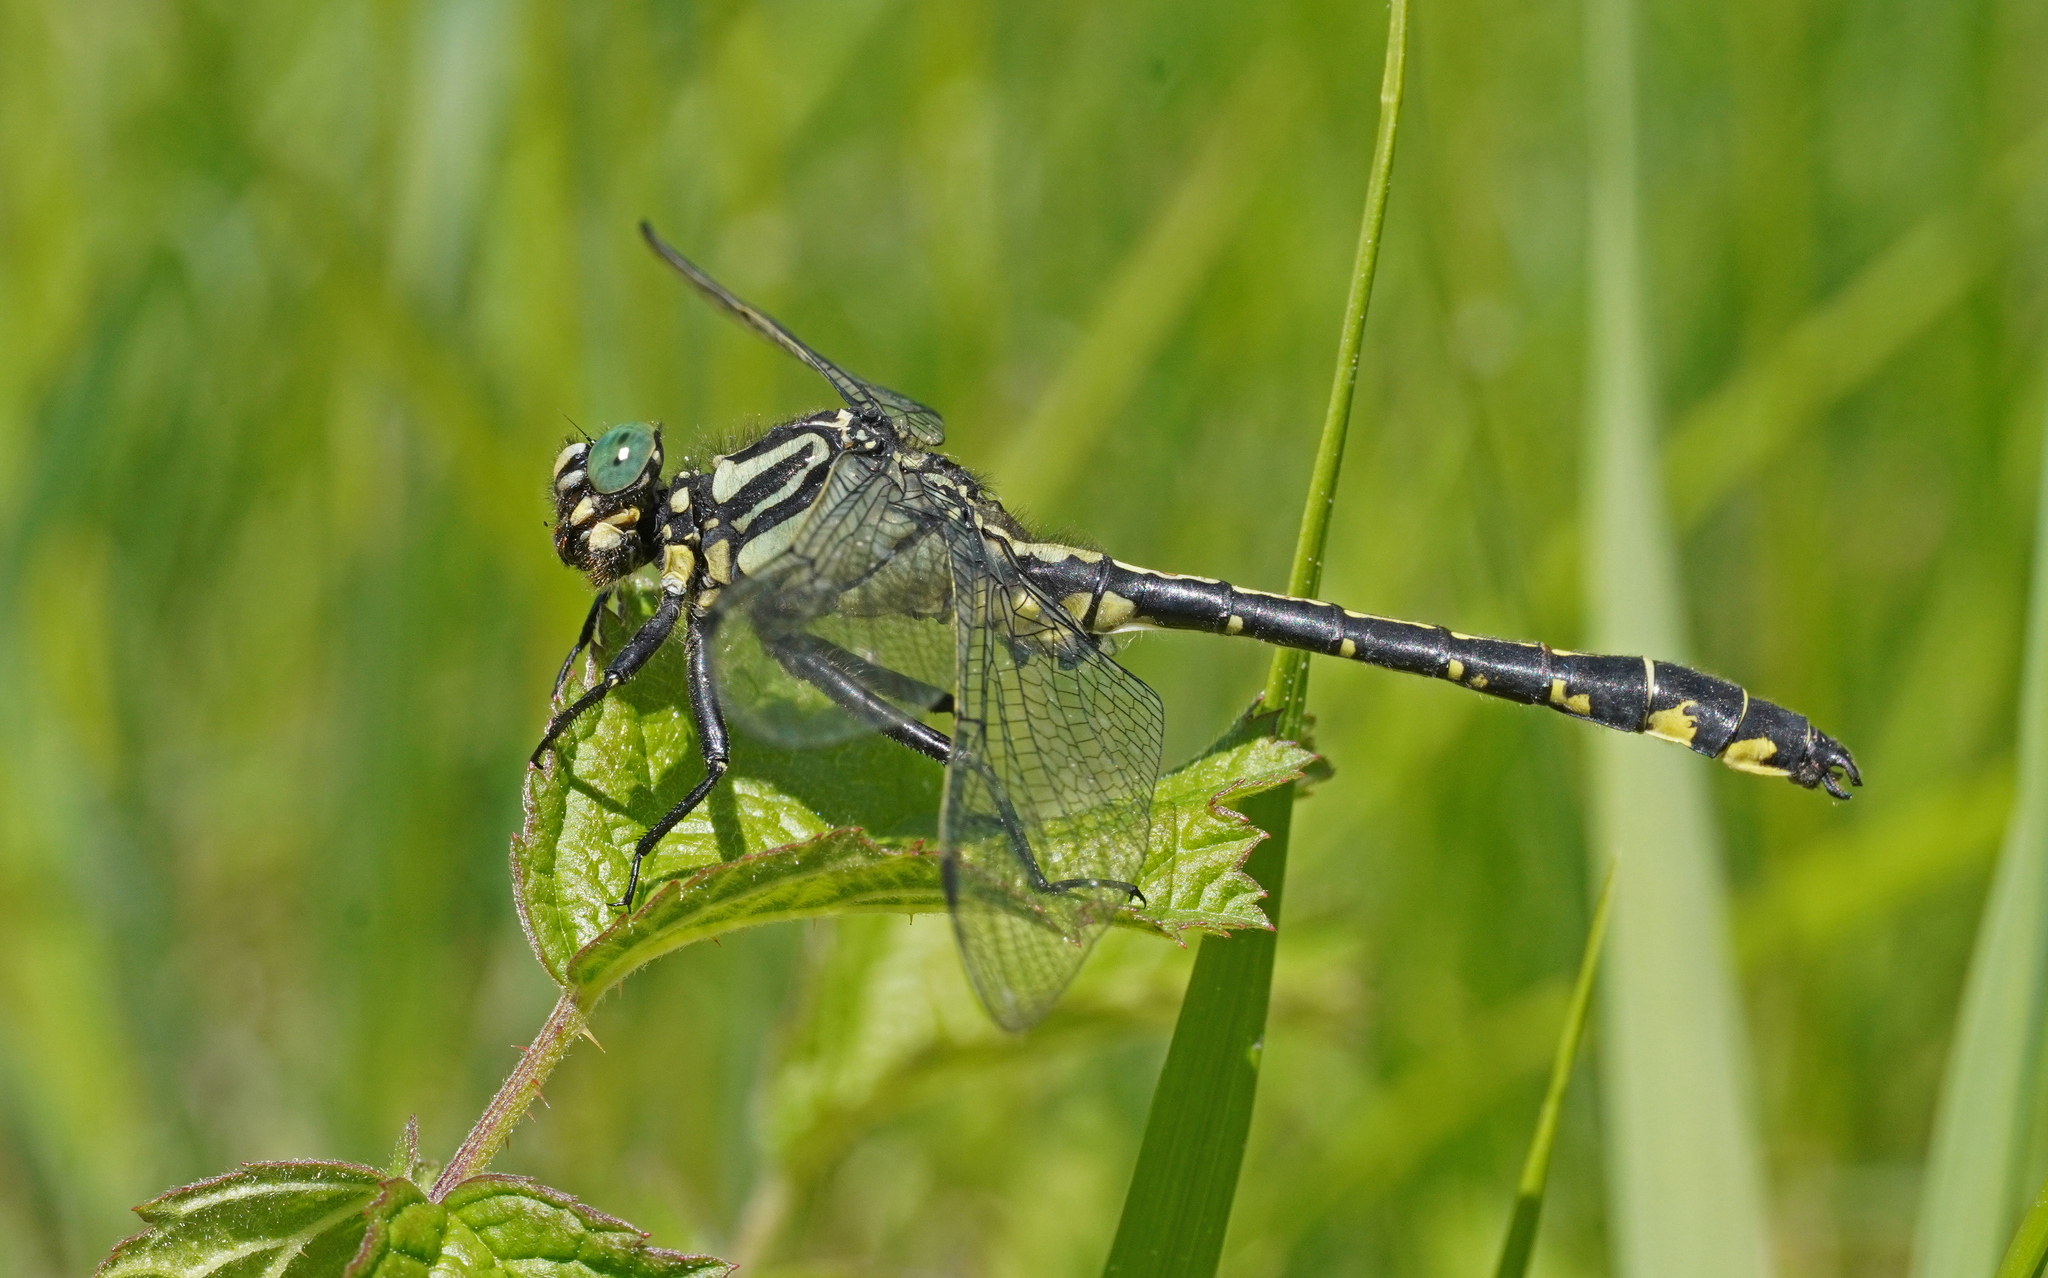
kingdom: Animalia
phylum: Arthropoda
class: Insecta
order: Odonata
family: Gomphidae
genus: Gomphus
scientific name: Gomphus vulgatissimus
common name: Club-tailed dragonfly
